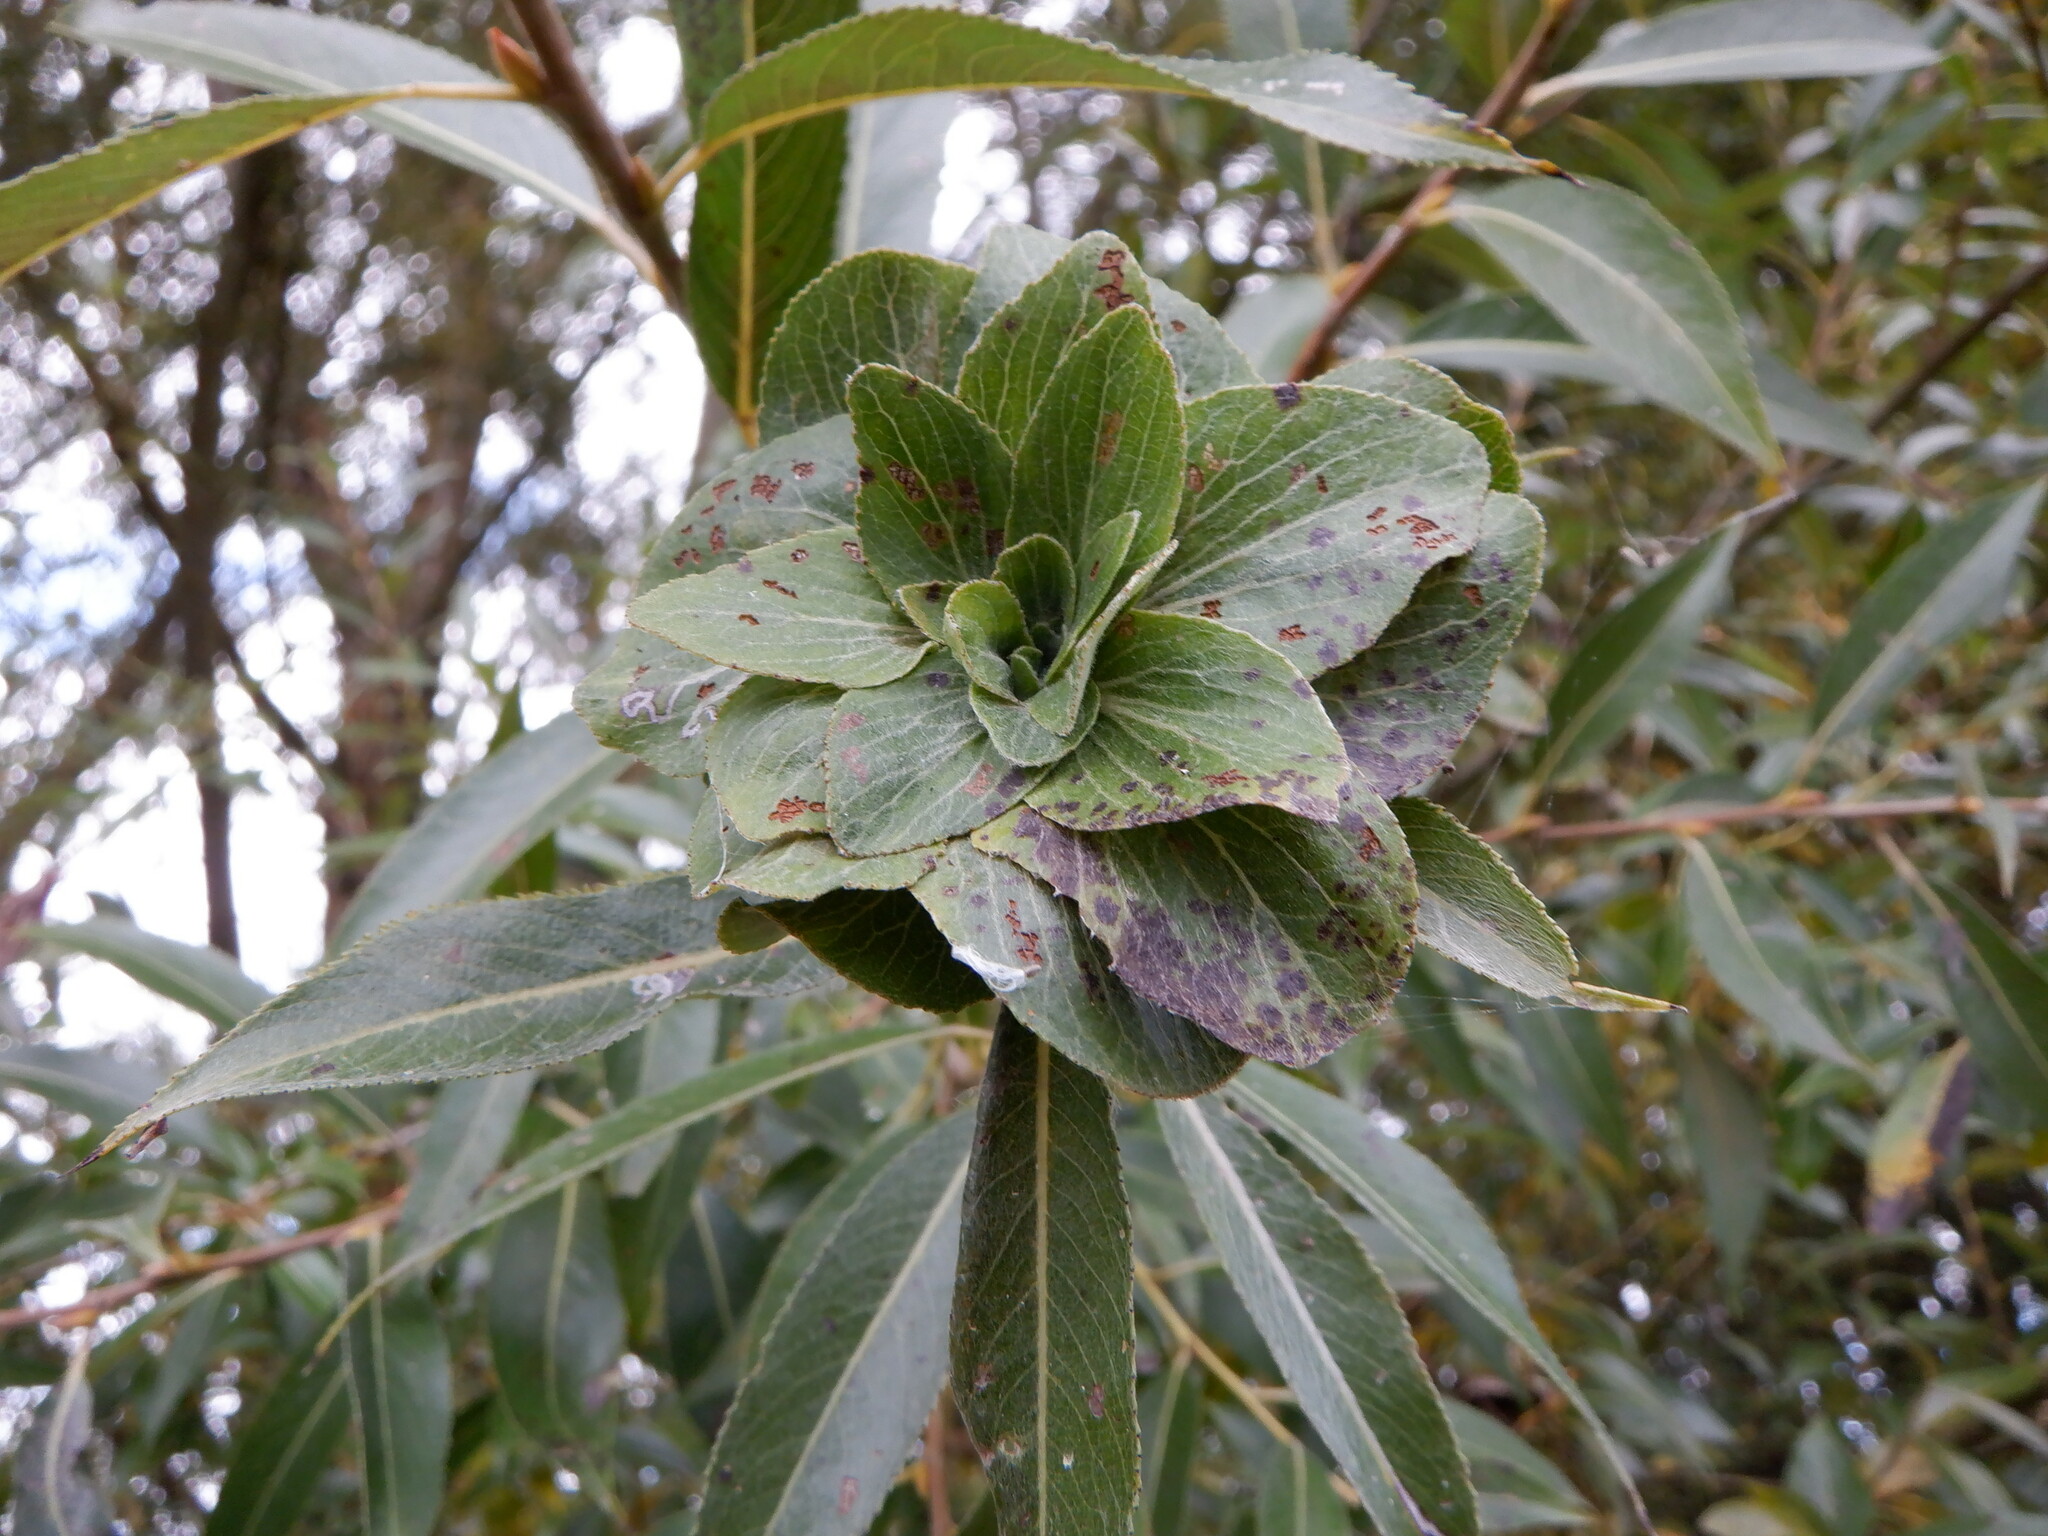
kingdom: Animalia
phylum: Arthropoda
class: Insecta
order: Diptera
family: Cecidomyiidae
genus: Rabdophaga
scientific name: Rabdophaga rosaria
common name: Willow rose gall midge
